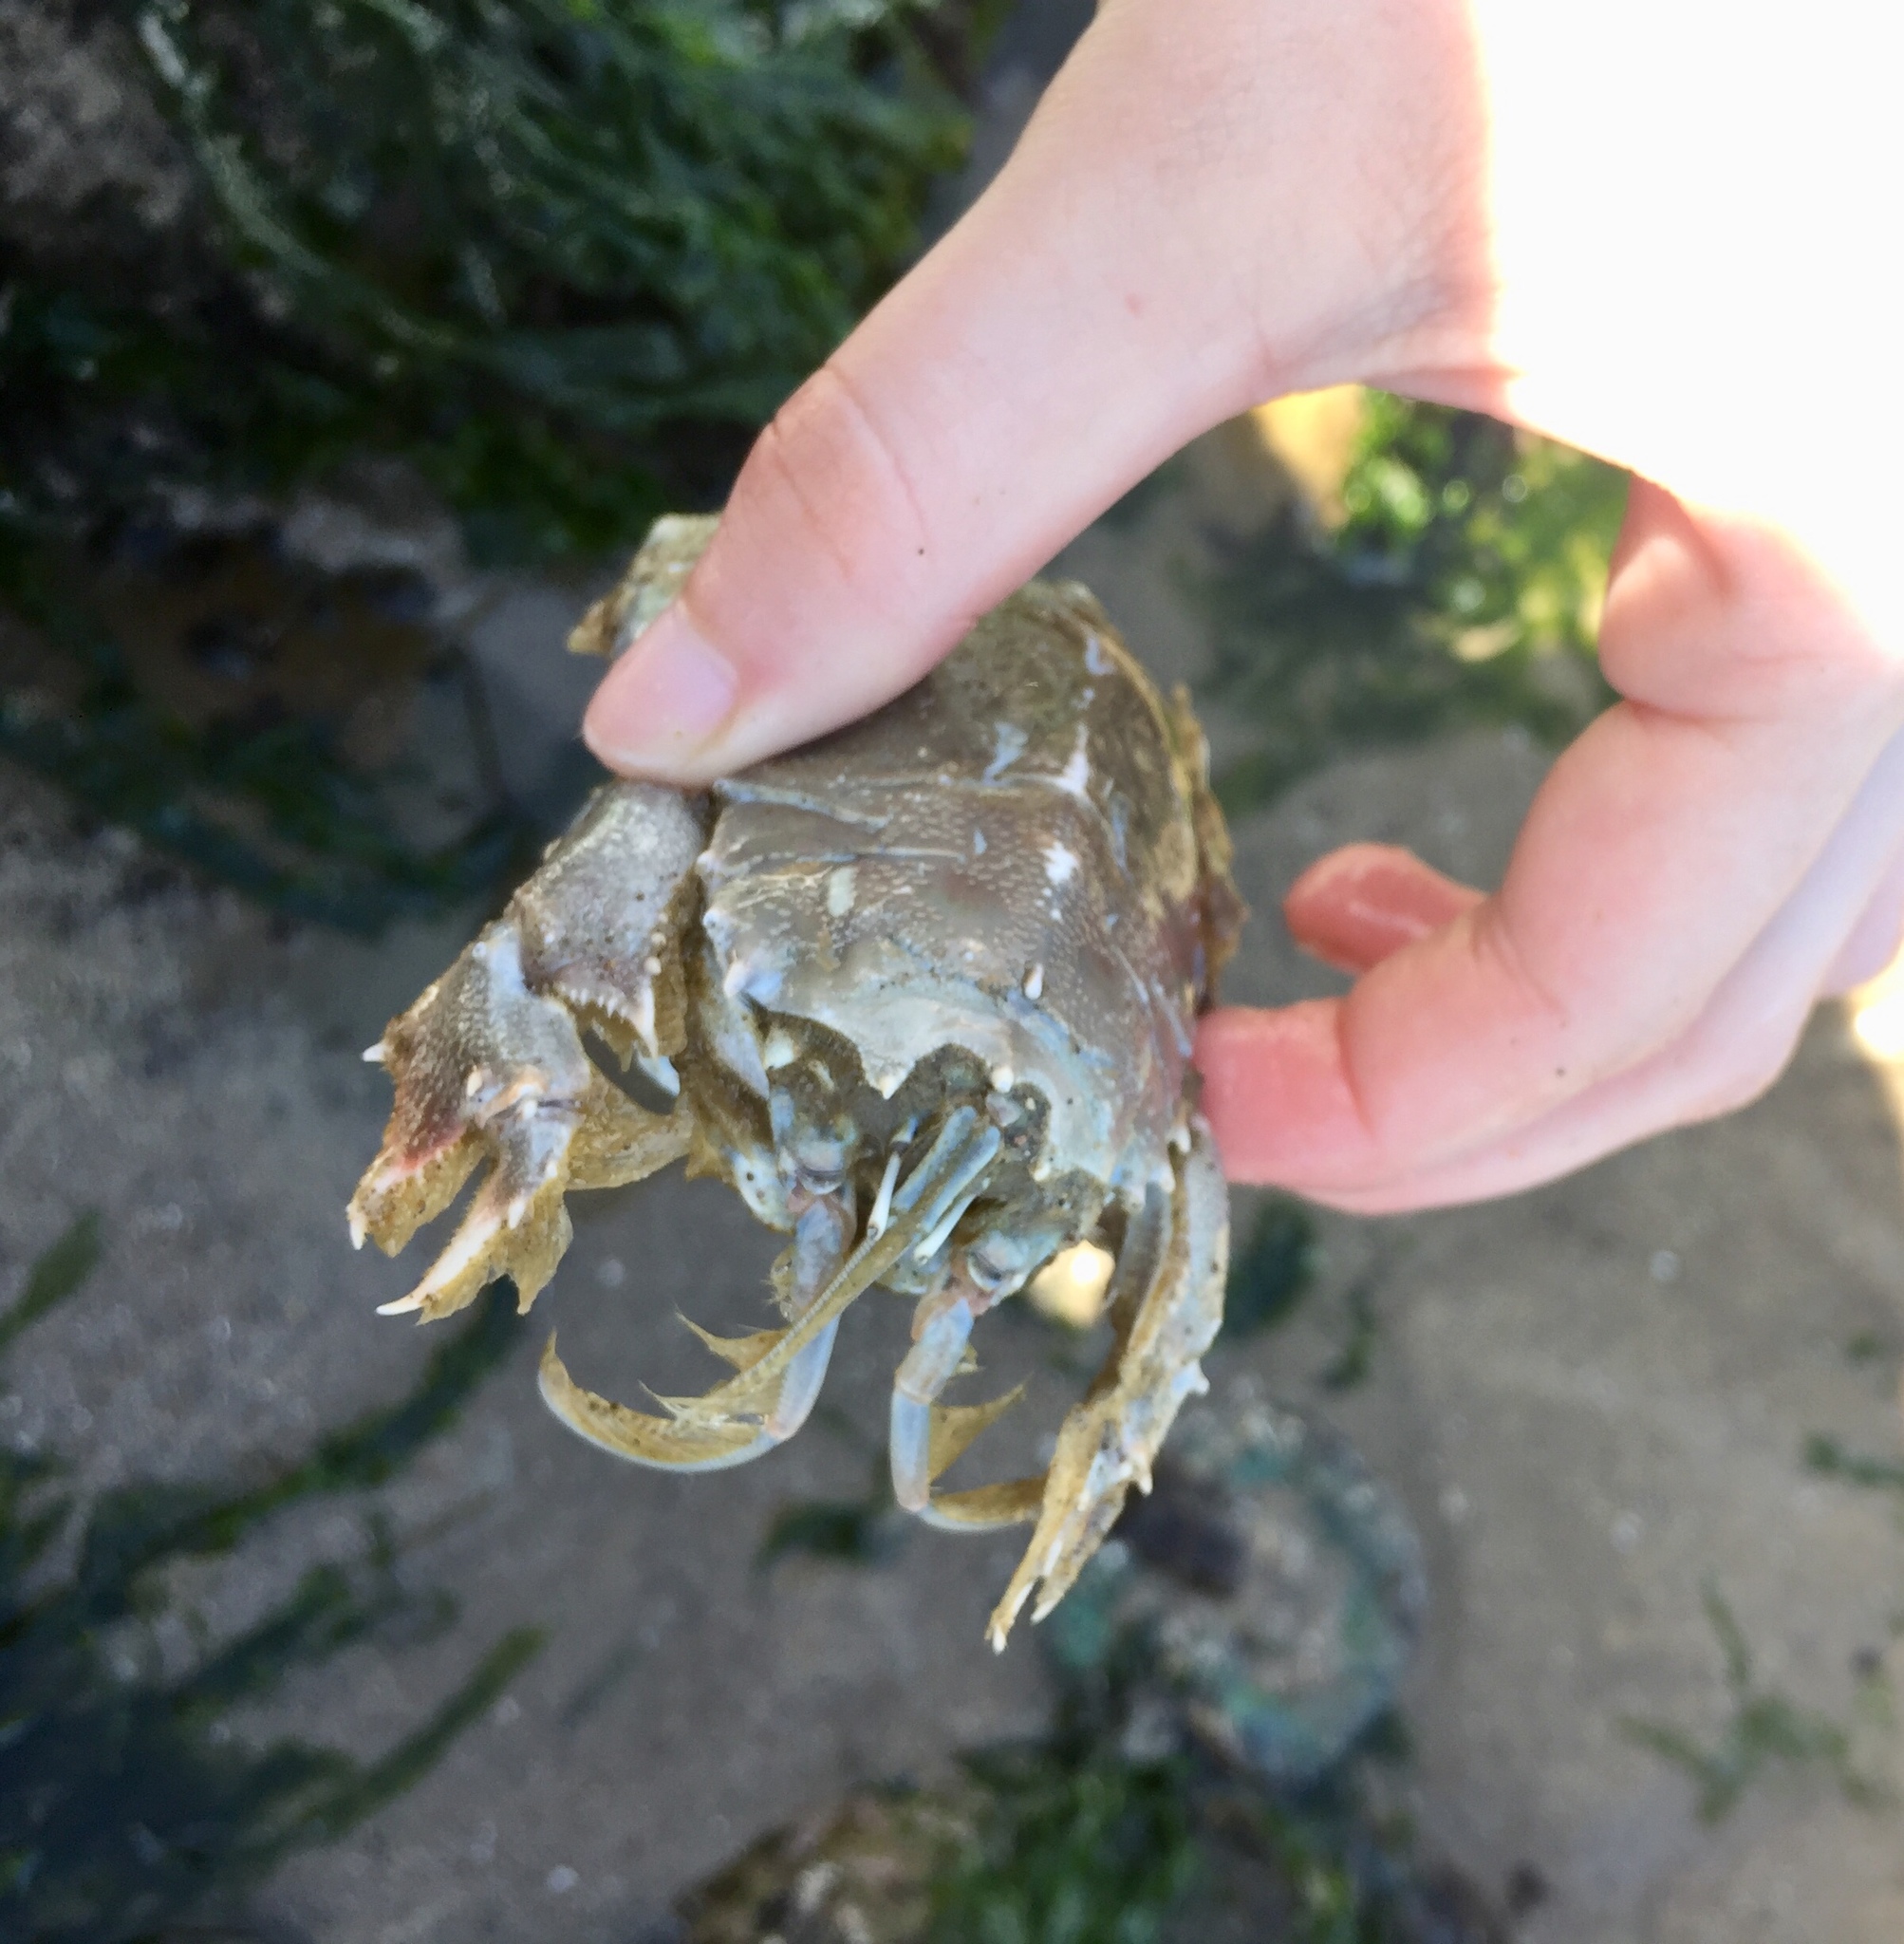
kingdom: Animalia
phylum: Arthropoda
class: Malacostraca
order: Decapoda
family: Blepharipodidae
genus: Blepharipoda
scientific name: Blepharipoda occidentalis
